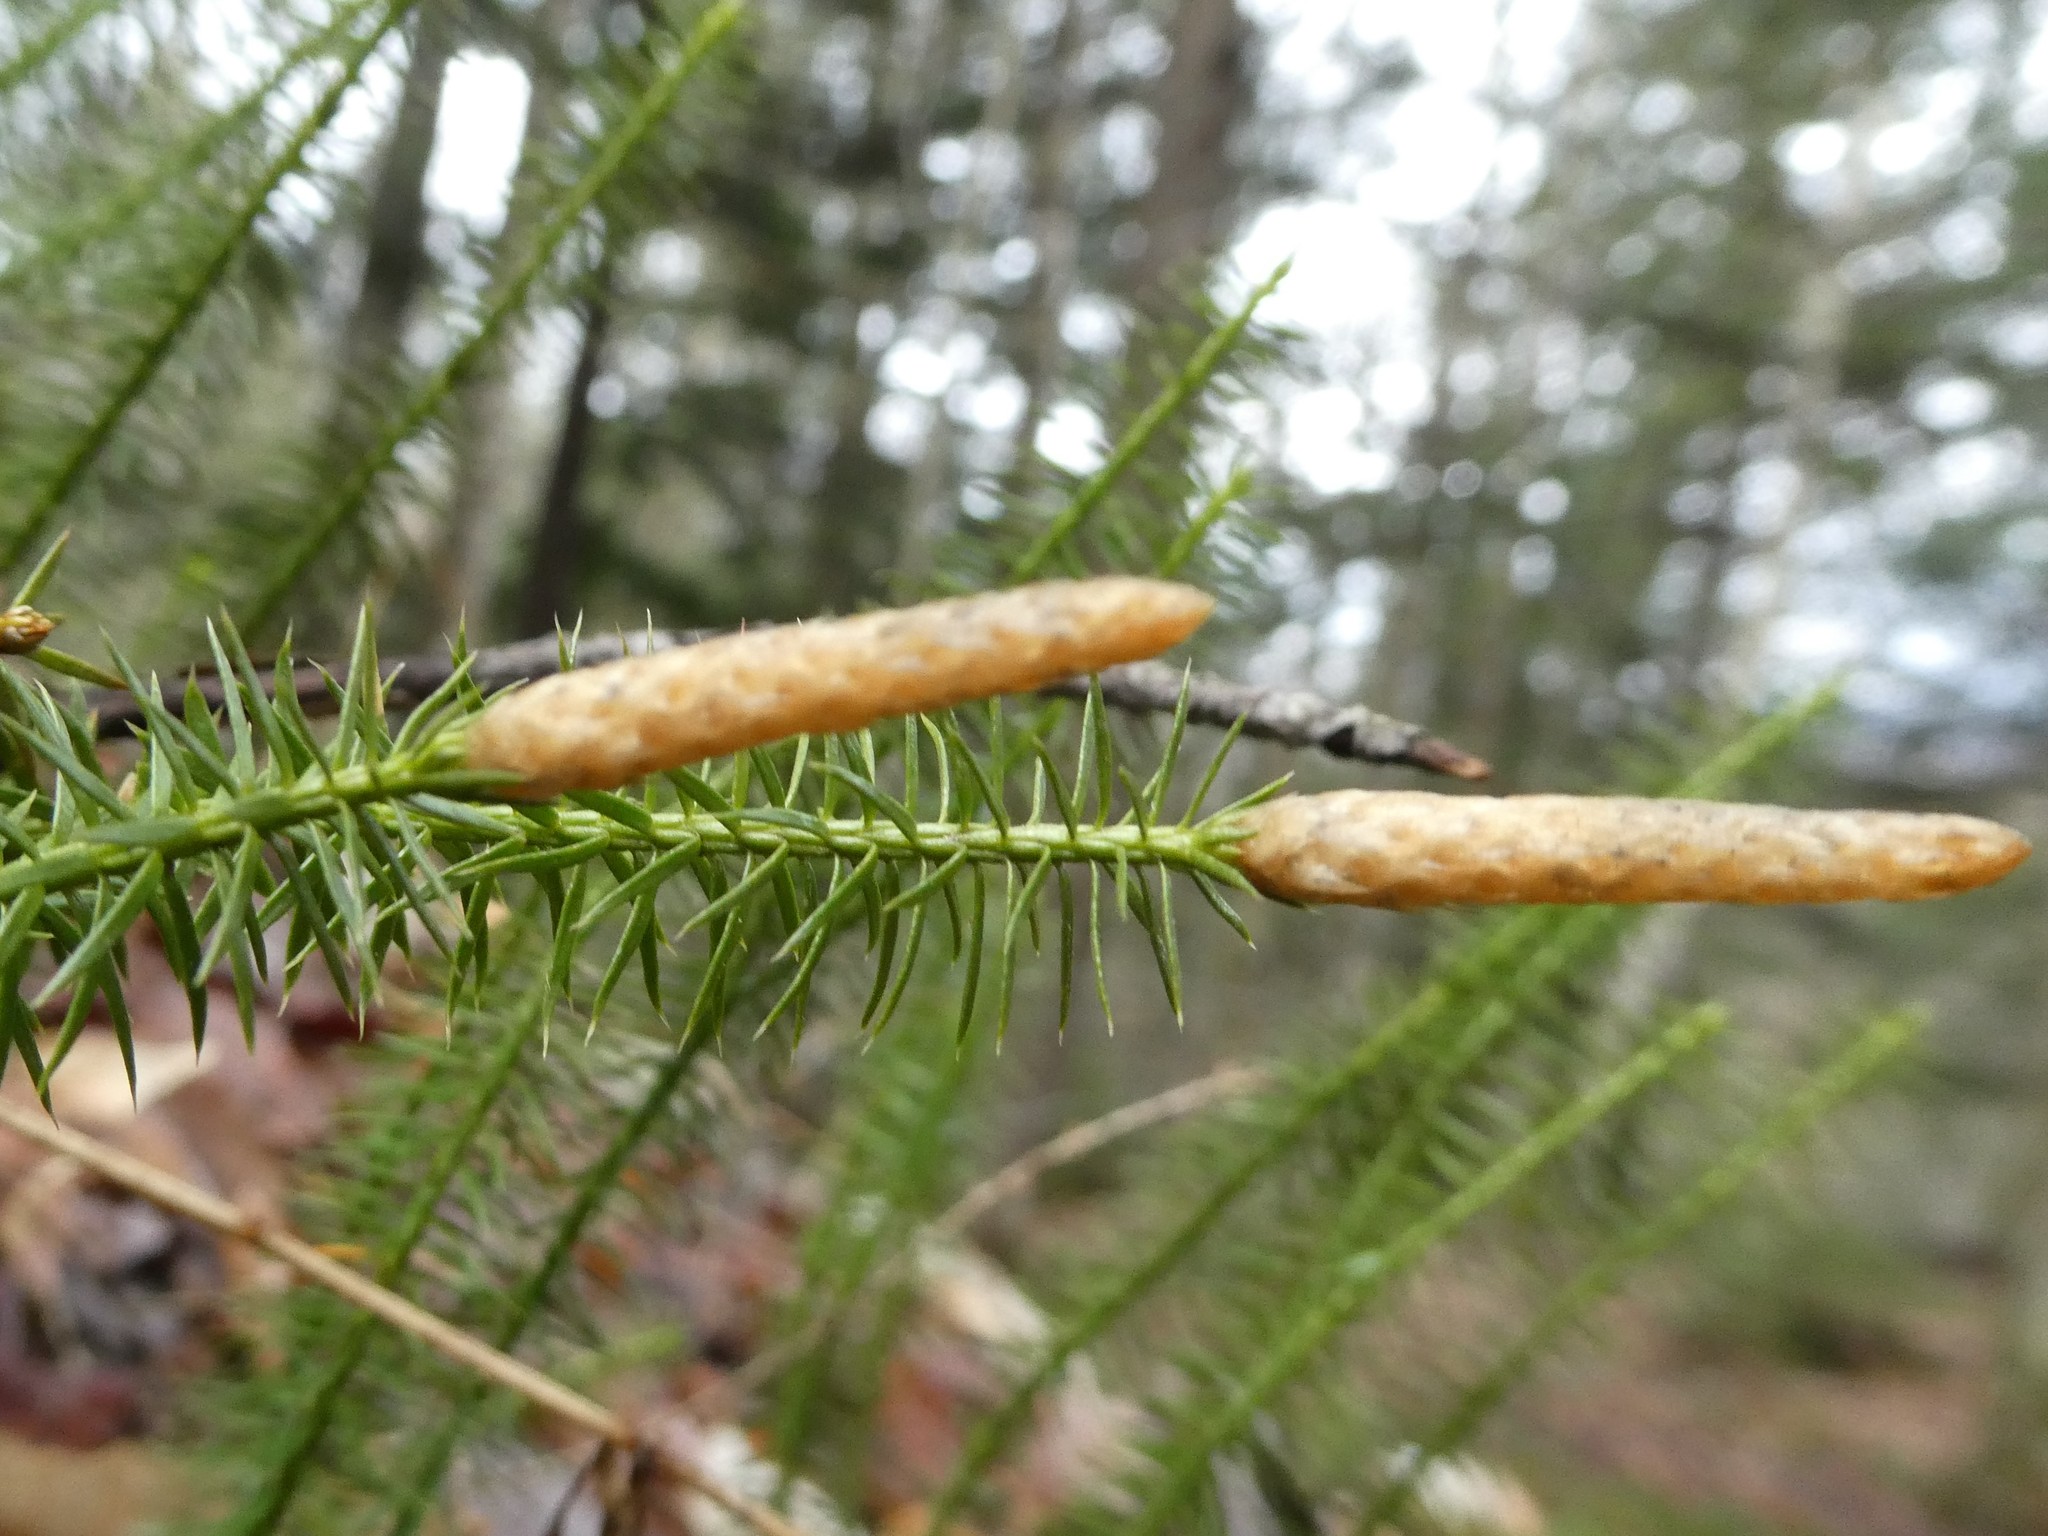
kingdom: Plantae
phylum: Tracheophyta
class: Lycopodiopsida
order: Lycopodiales
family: Lycopodiaceae
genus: Spinulum
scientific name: Spinulum annotinum
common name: Interrupted club-moss
